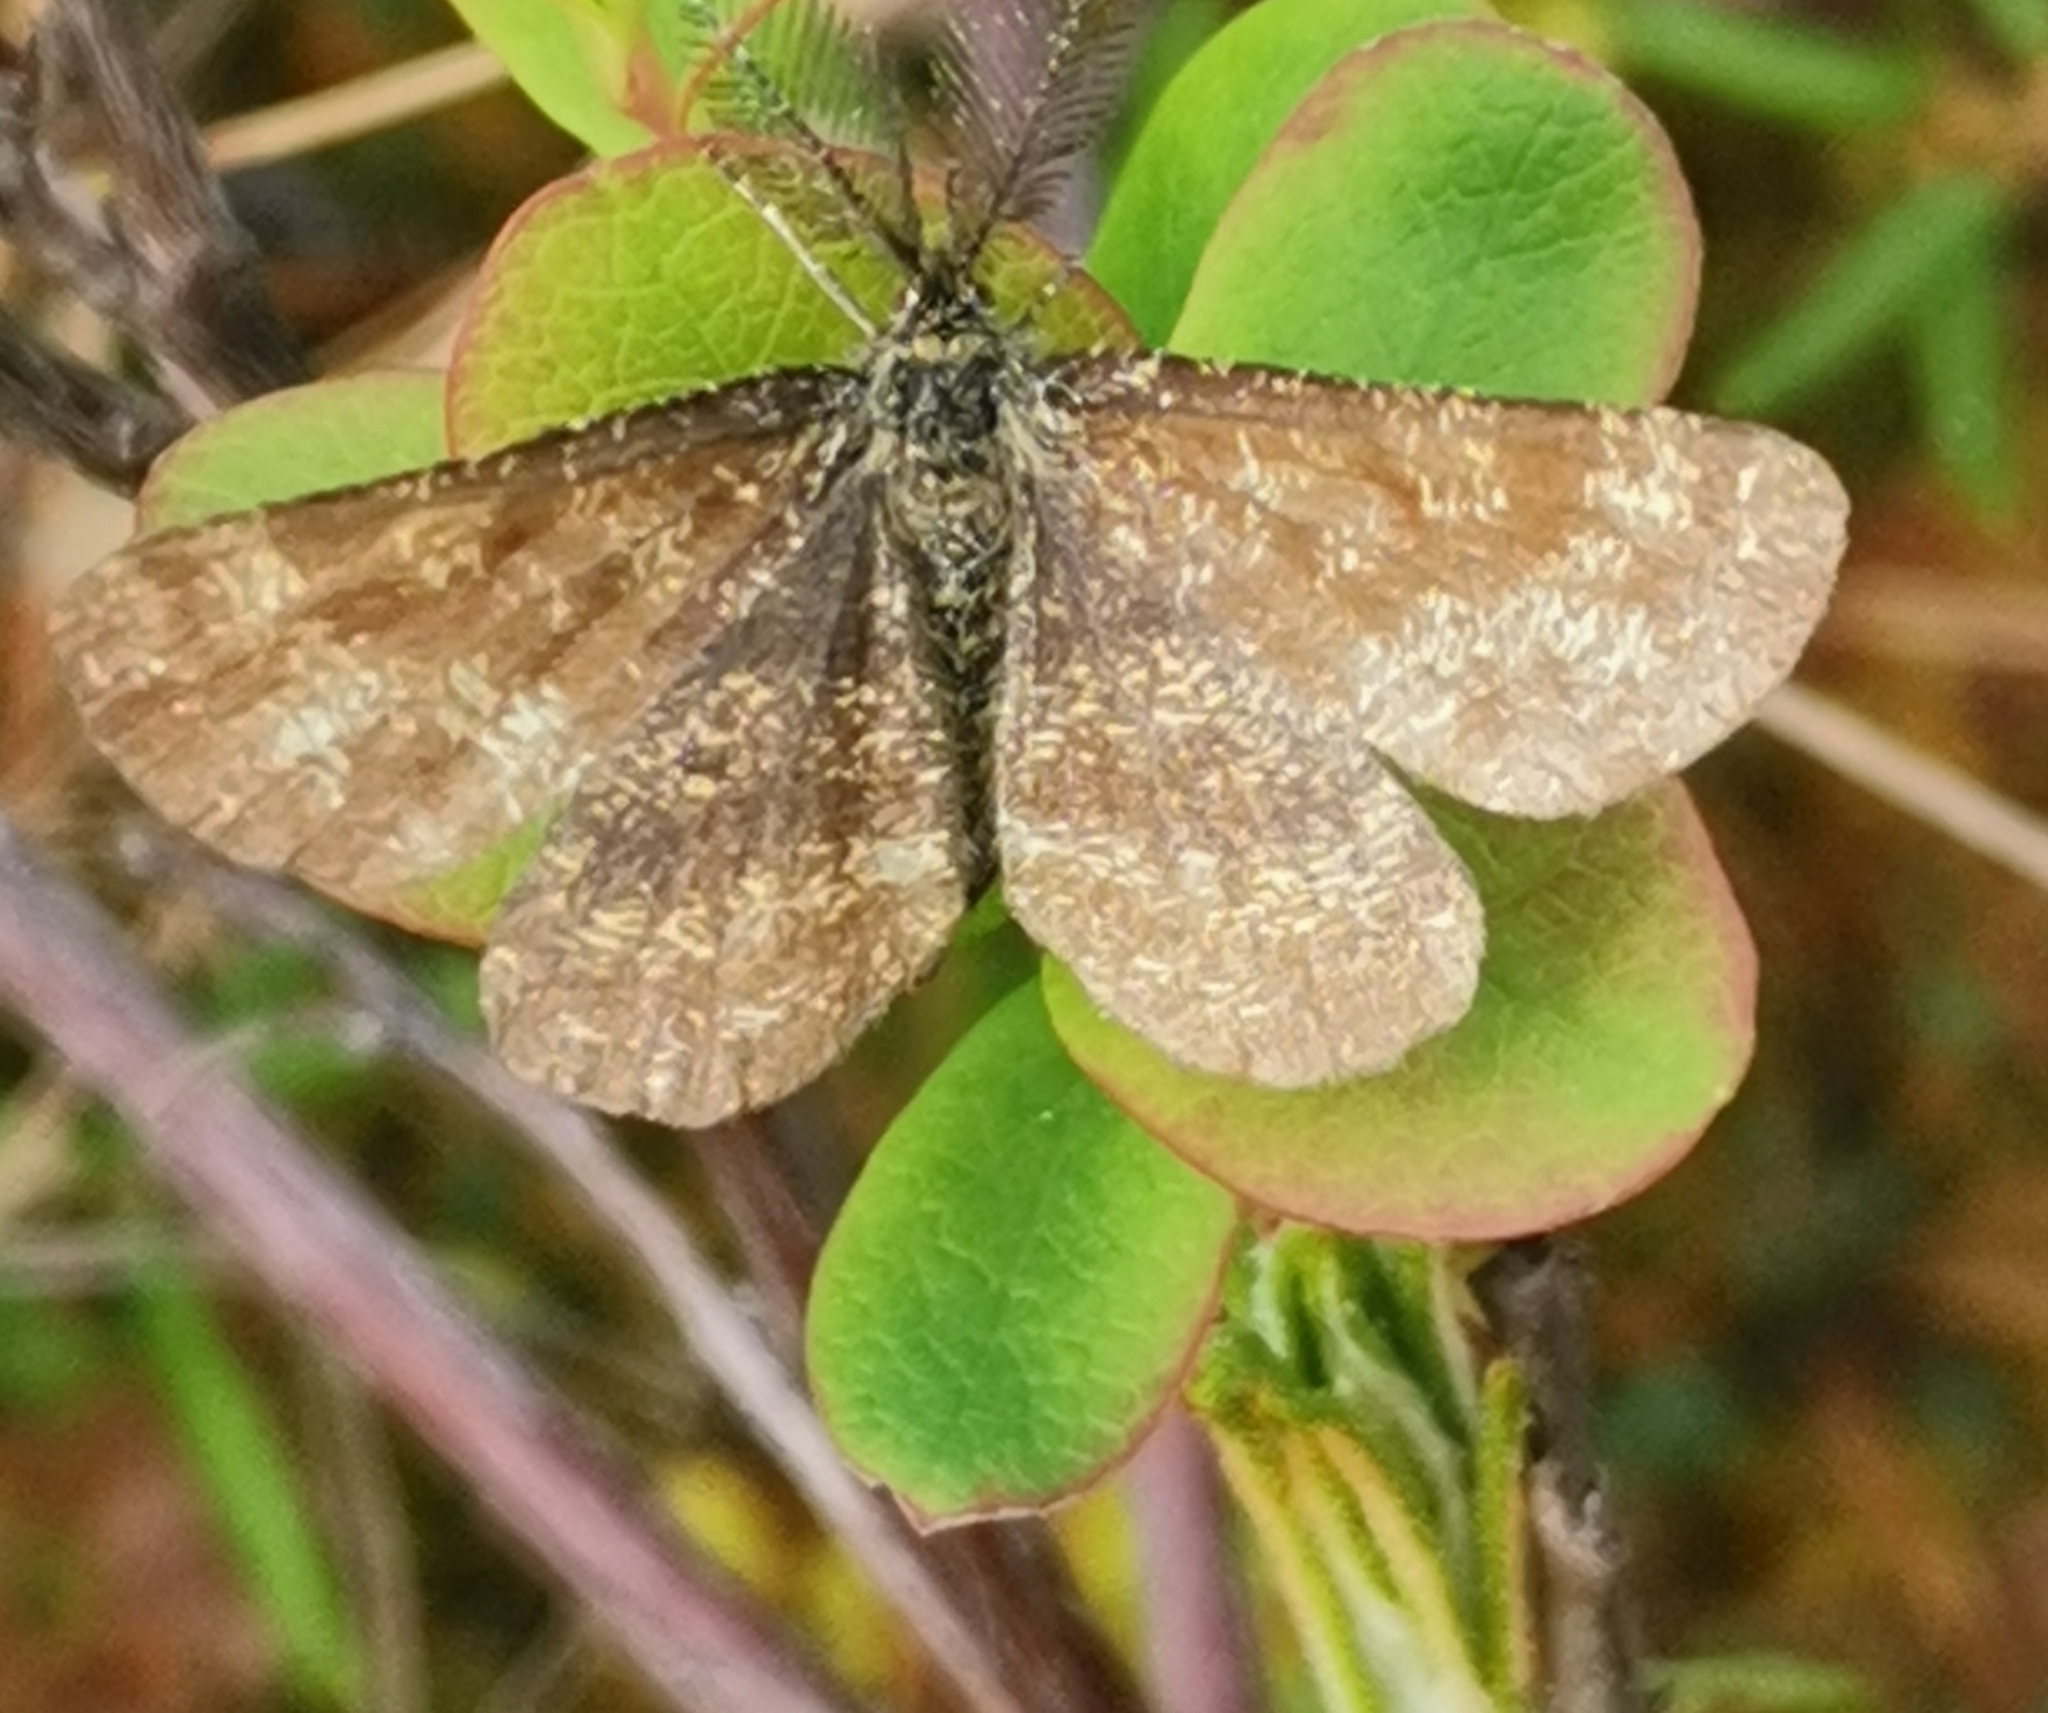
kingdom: Animalia
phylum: Arthropoda
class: Insecta
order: Lepidoptera
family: Geometridae
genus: Ematurga
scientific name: Ematurga atomaria
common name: Common heath
